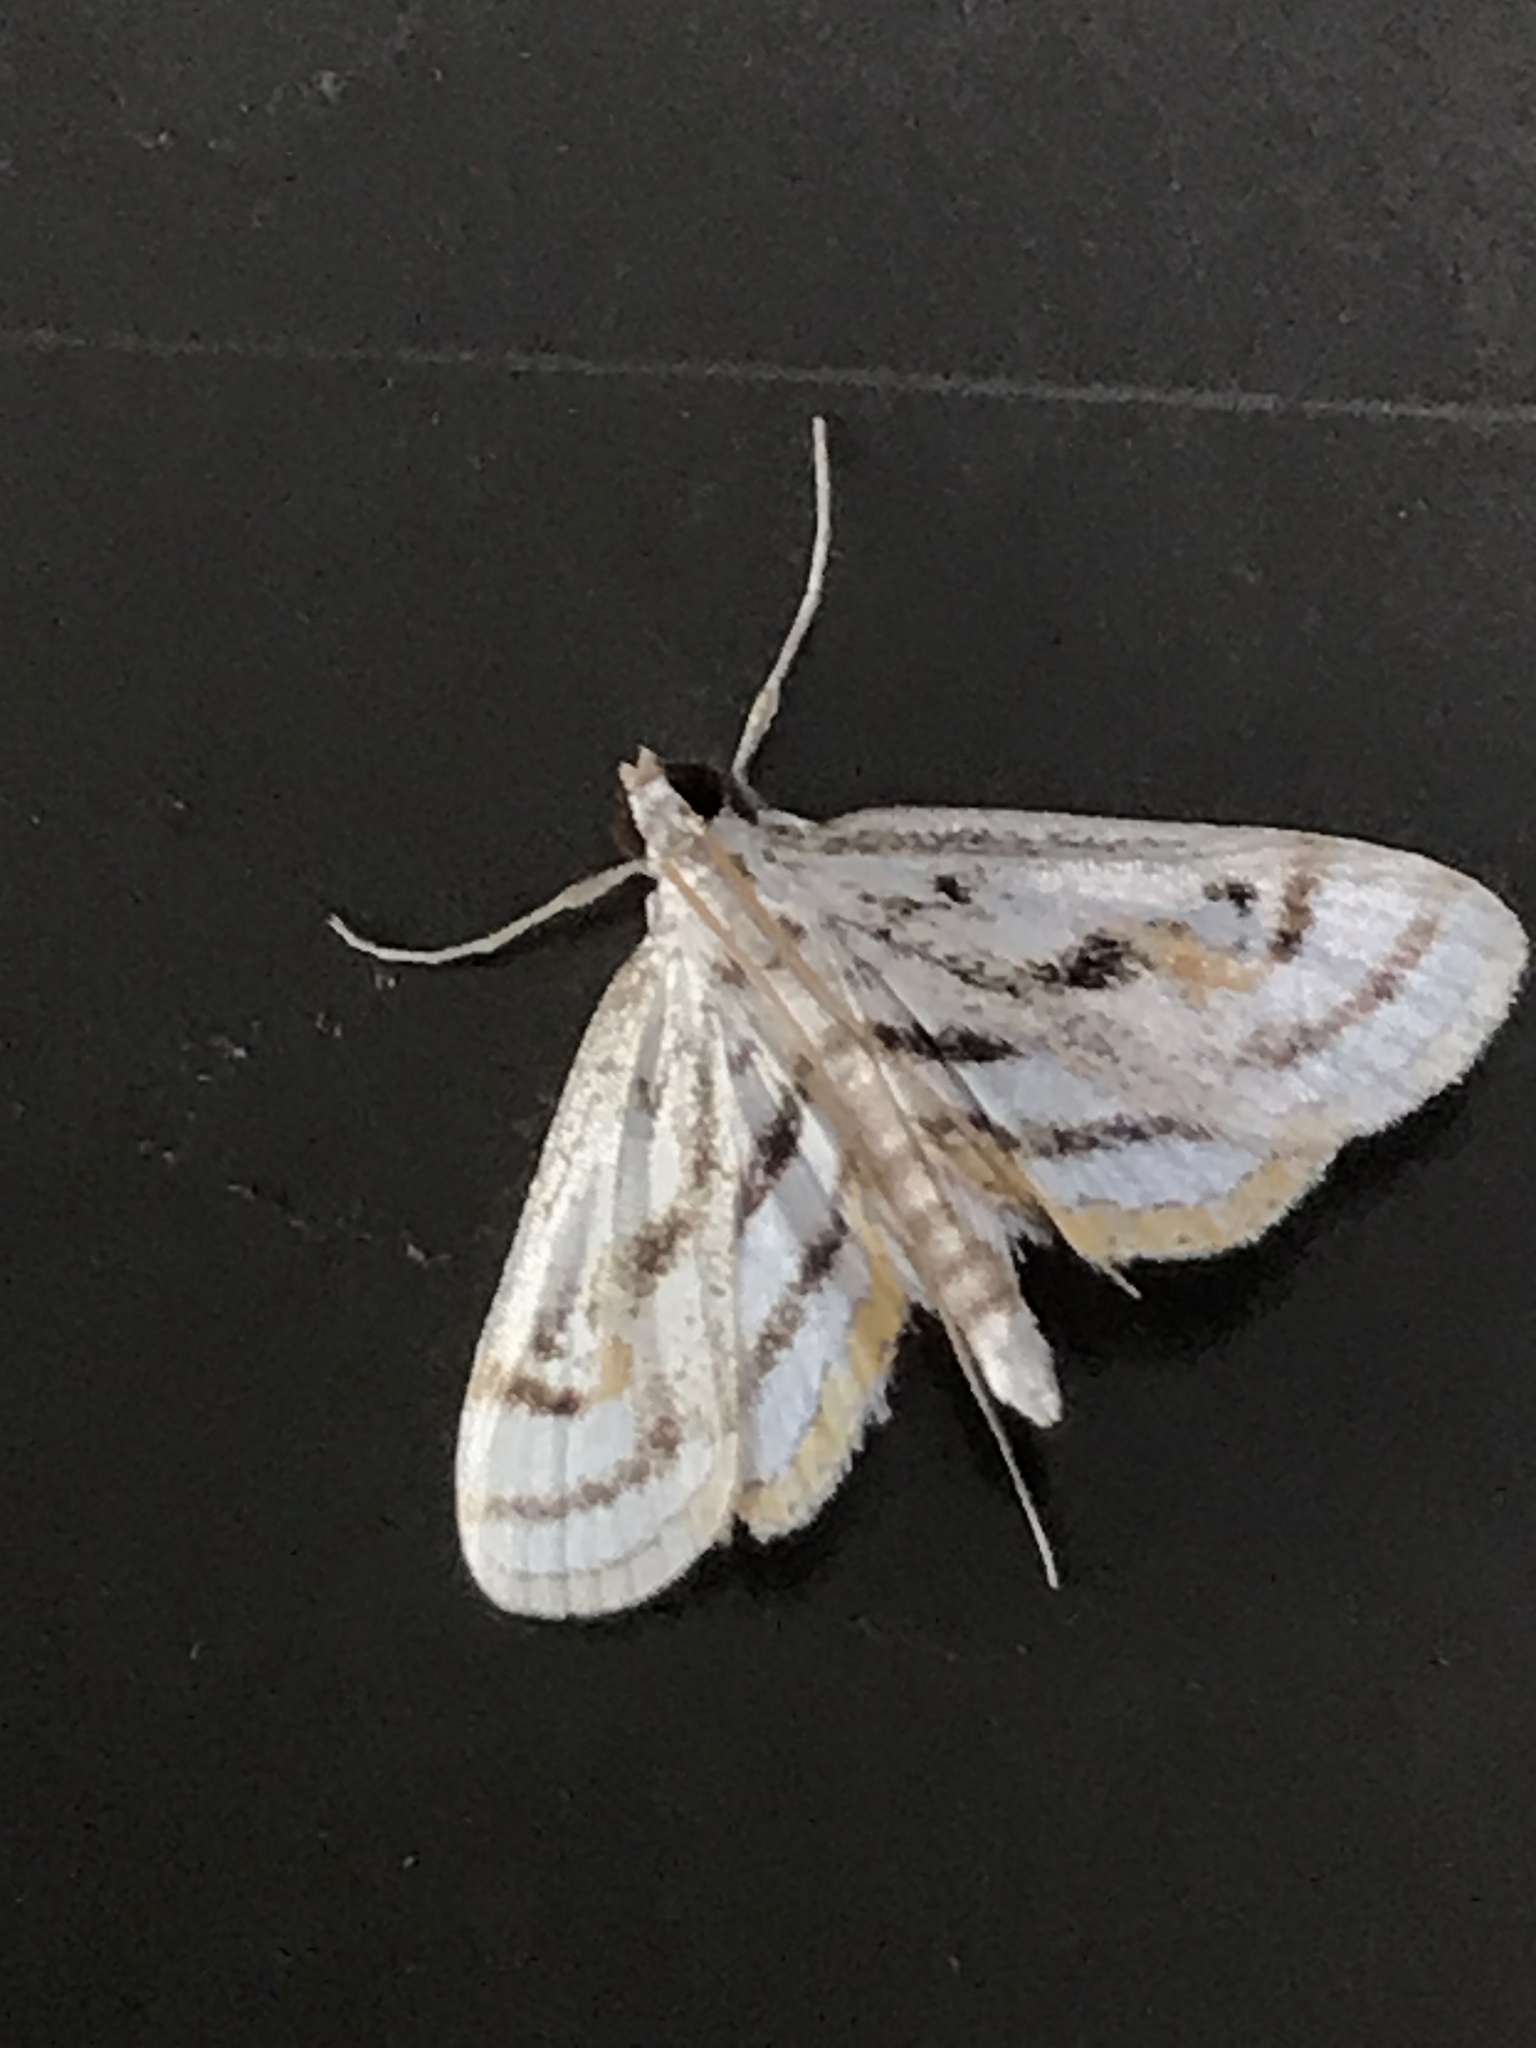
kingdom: Animalia
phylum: Arthropoda
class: Insecta
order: Lepidoptera
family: Crambidae
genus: Parapoynx
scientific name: Parapoynx badiusalis
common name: Chestnut-marked pondweed moth
